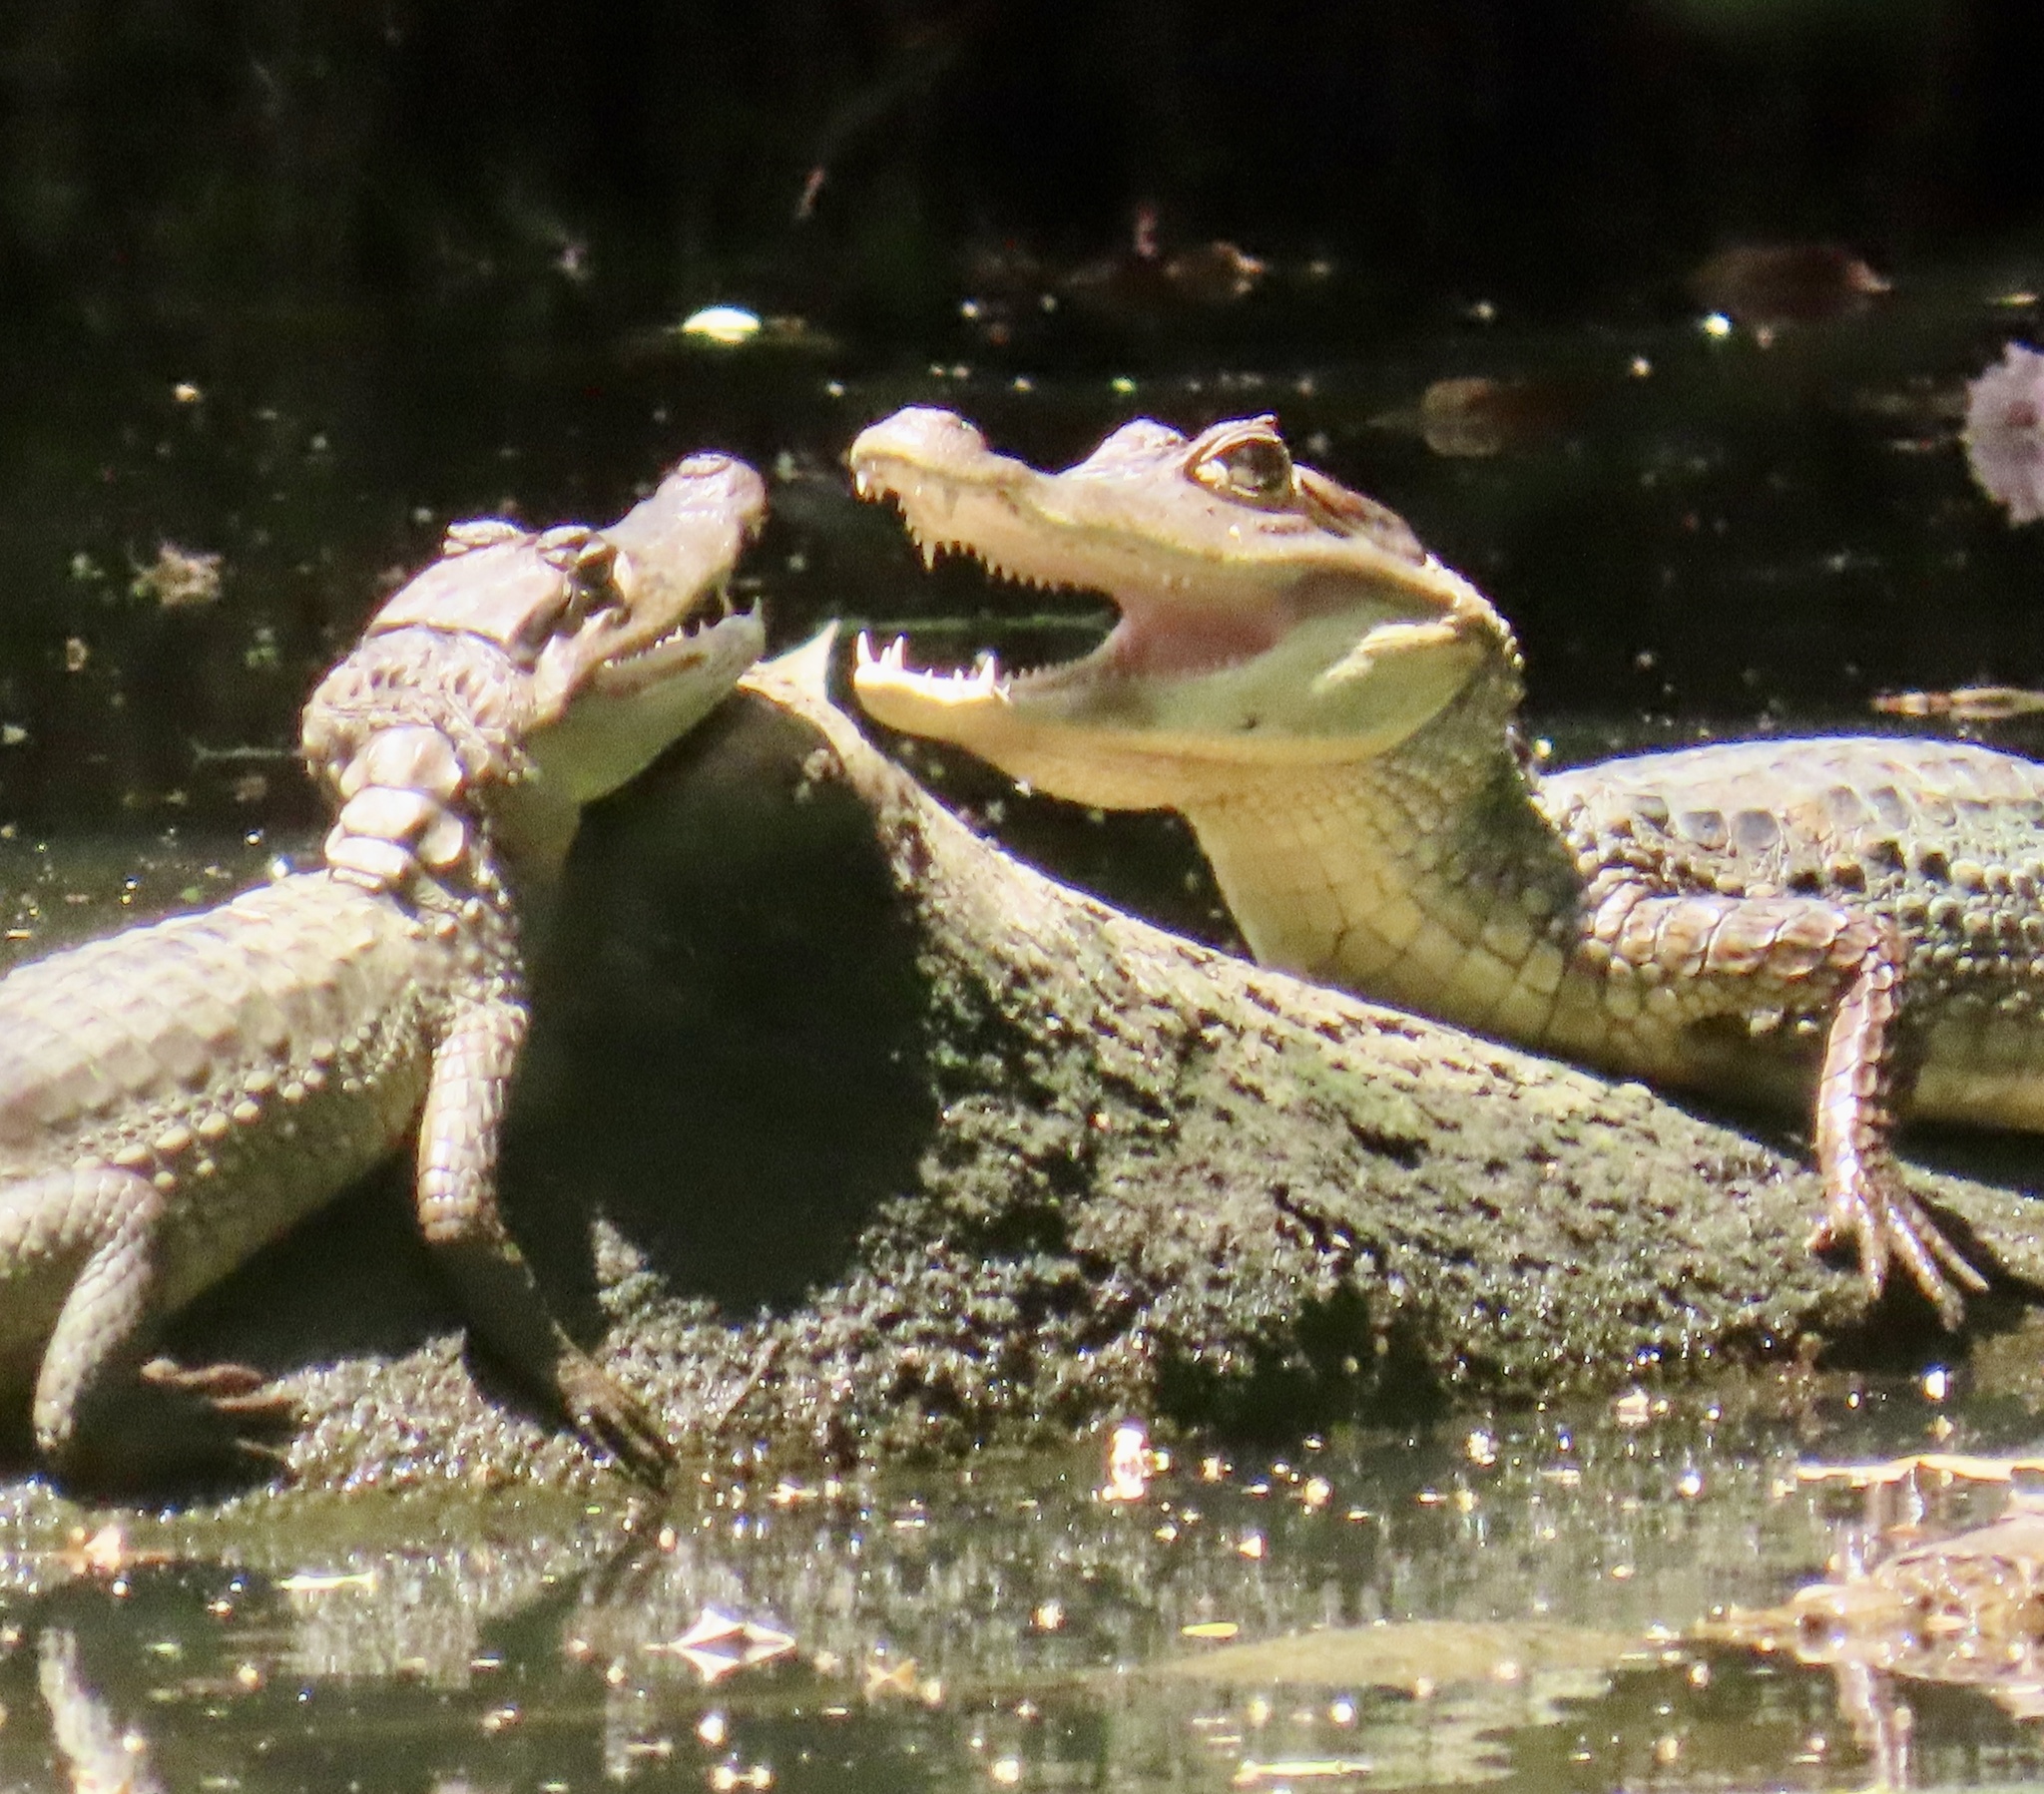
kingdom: Animalia
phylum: Chordata
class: Crocodylia
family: Alligatoridae
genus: Caiman
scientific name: Caiman crocodilus
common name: Common caiman
